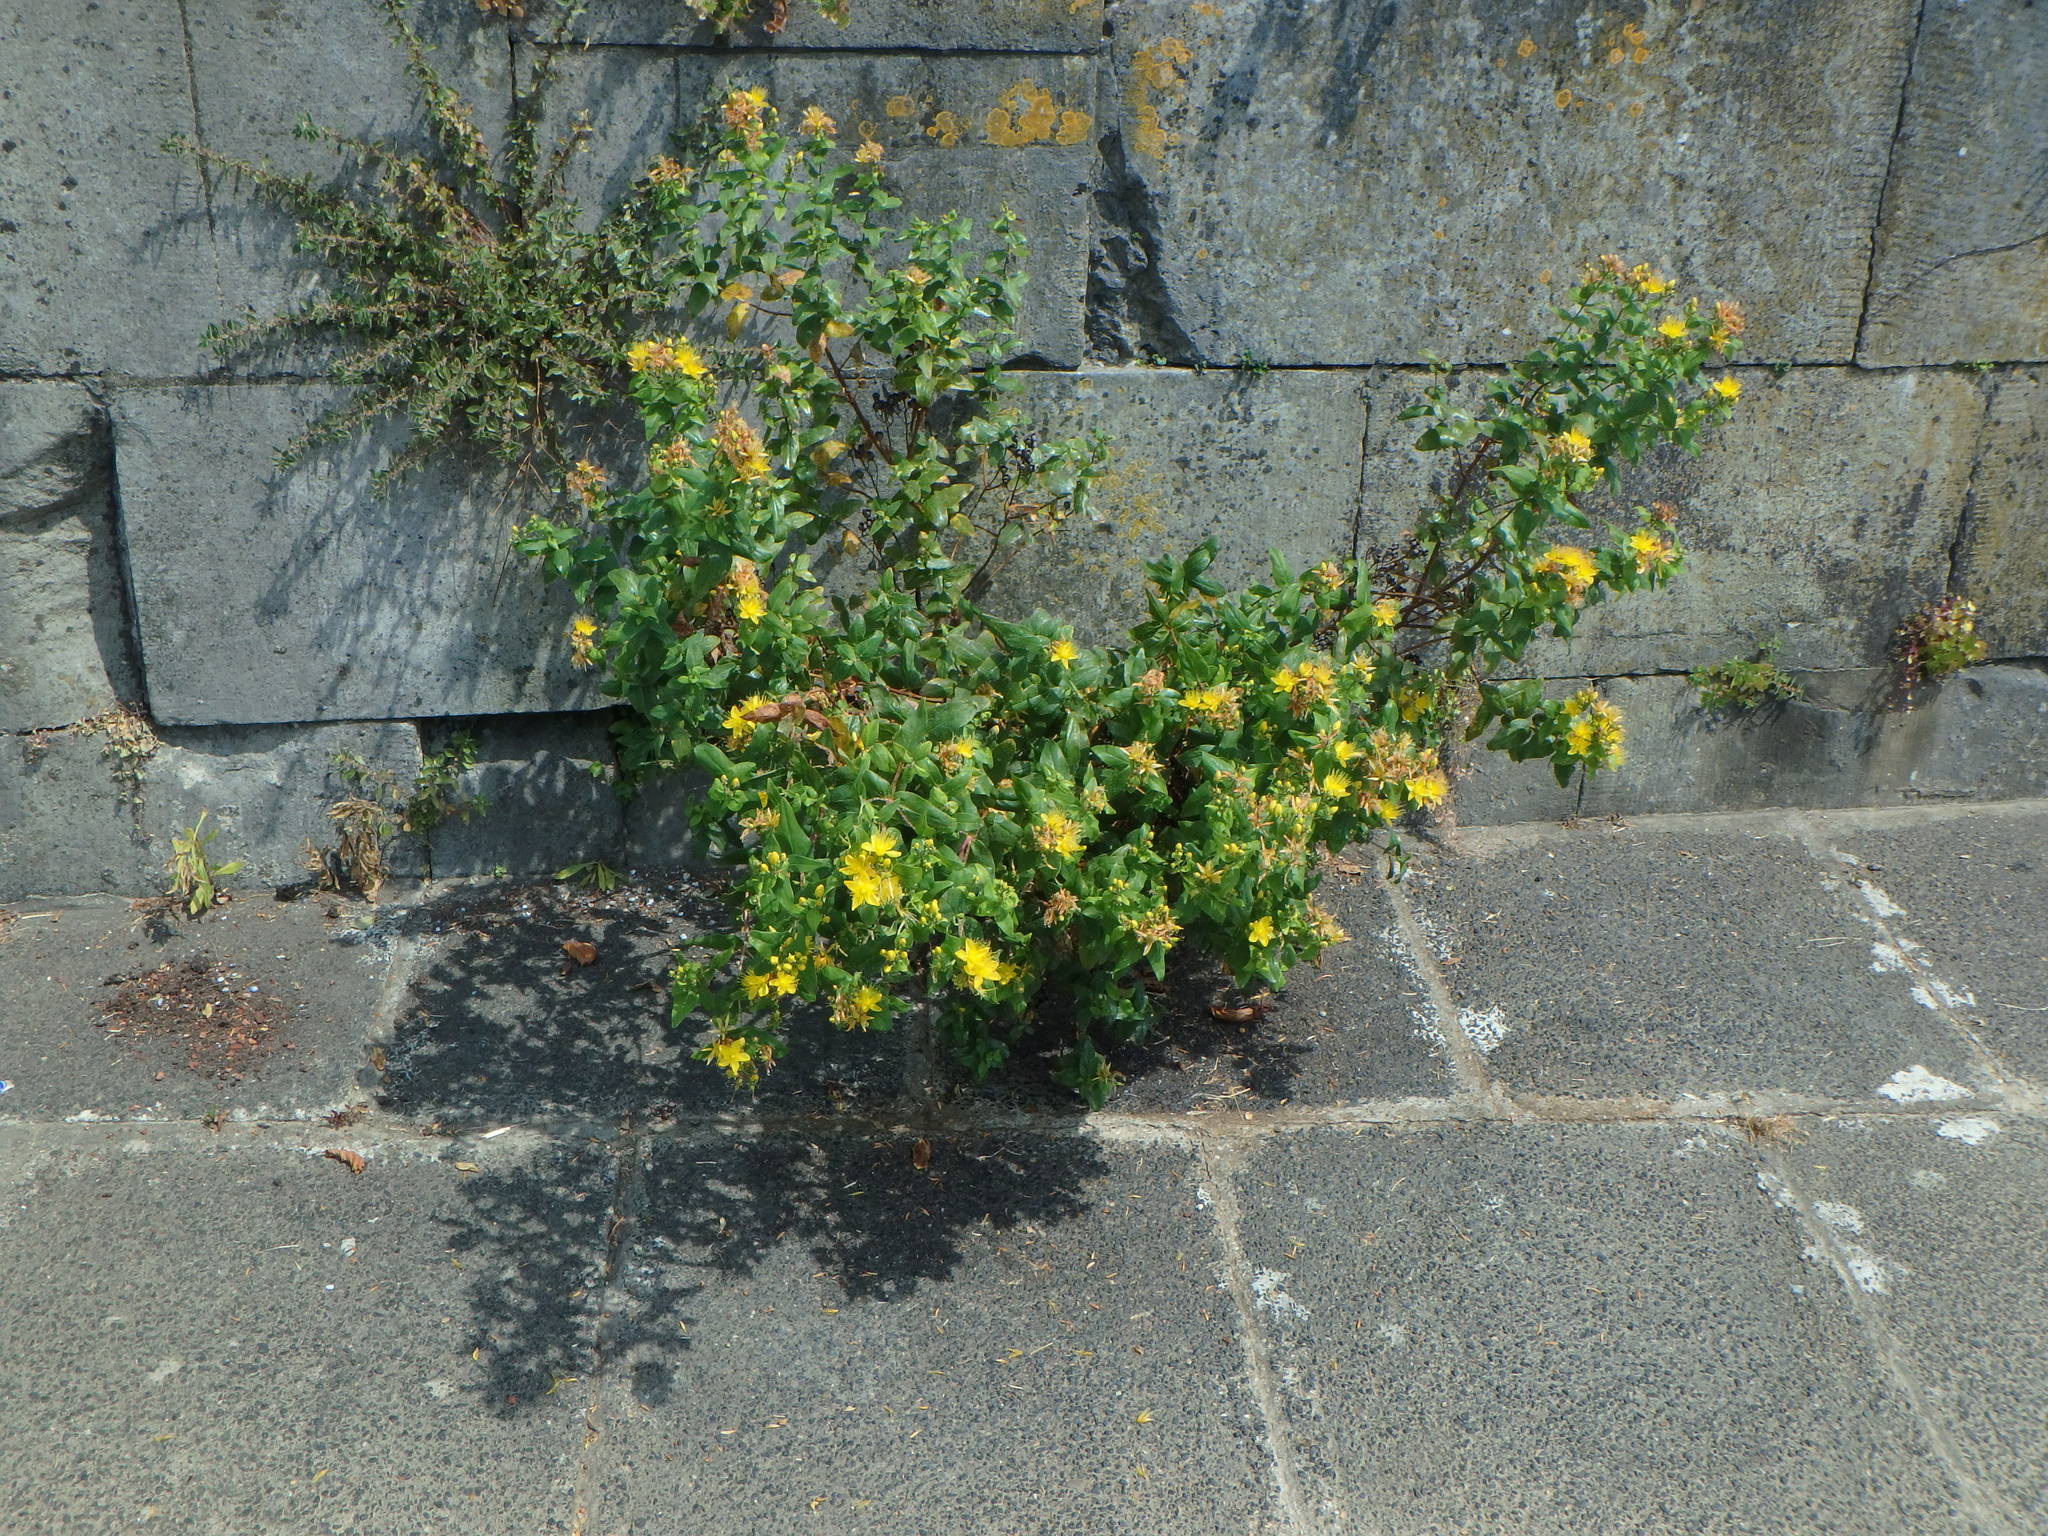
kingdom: Plantae
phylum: Tracheophyta
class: Magnoliopsida
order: Malpighiales
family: Hypericaceae
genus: Hypericum
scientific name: Hypericum hircinum
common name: Stinking tutsan
